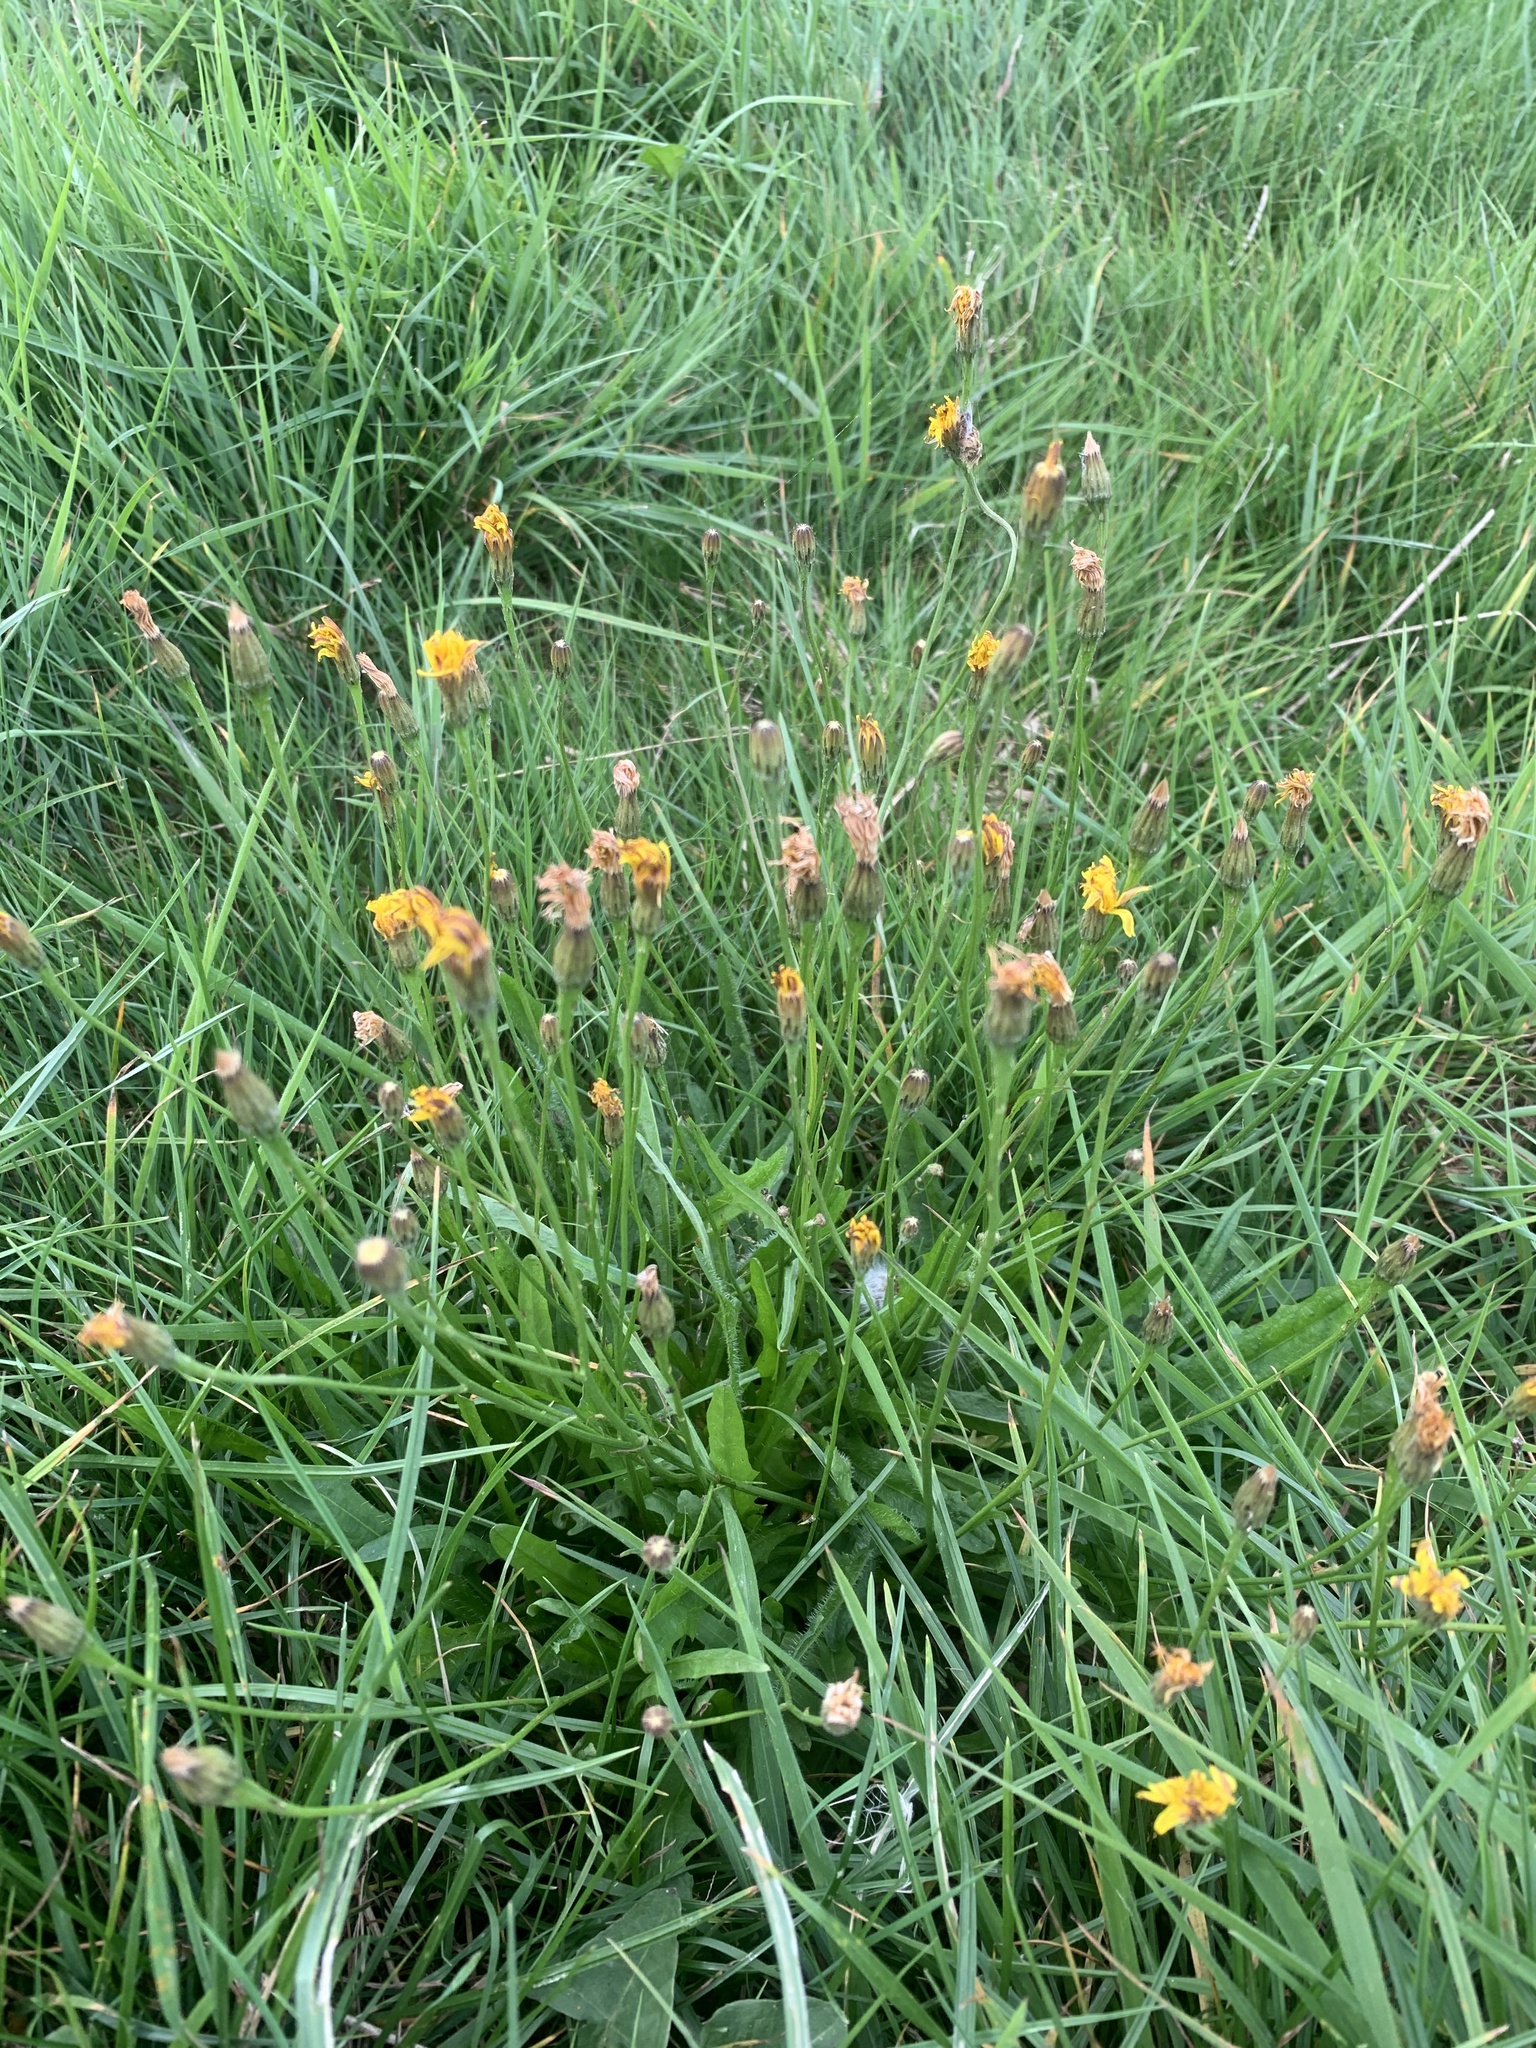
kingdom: Plantae
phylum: Tracheophyta
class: Magnoliopsida
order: Asterales
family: Asteraceae
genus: Hypochaeris
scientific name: Hypochaeris radicata
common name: Flatweed
